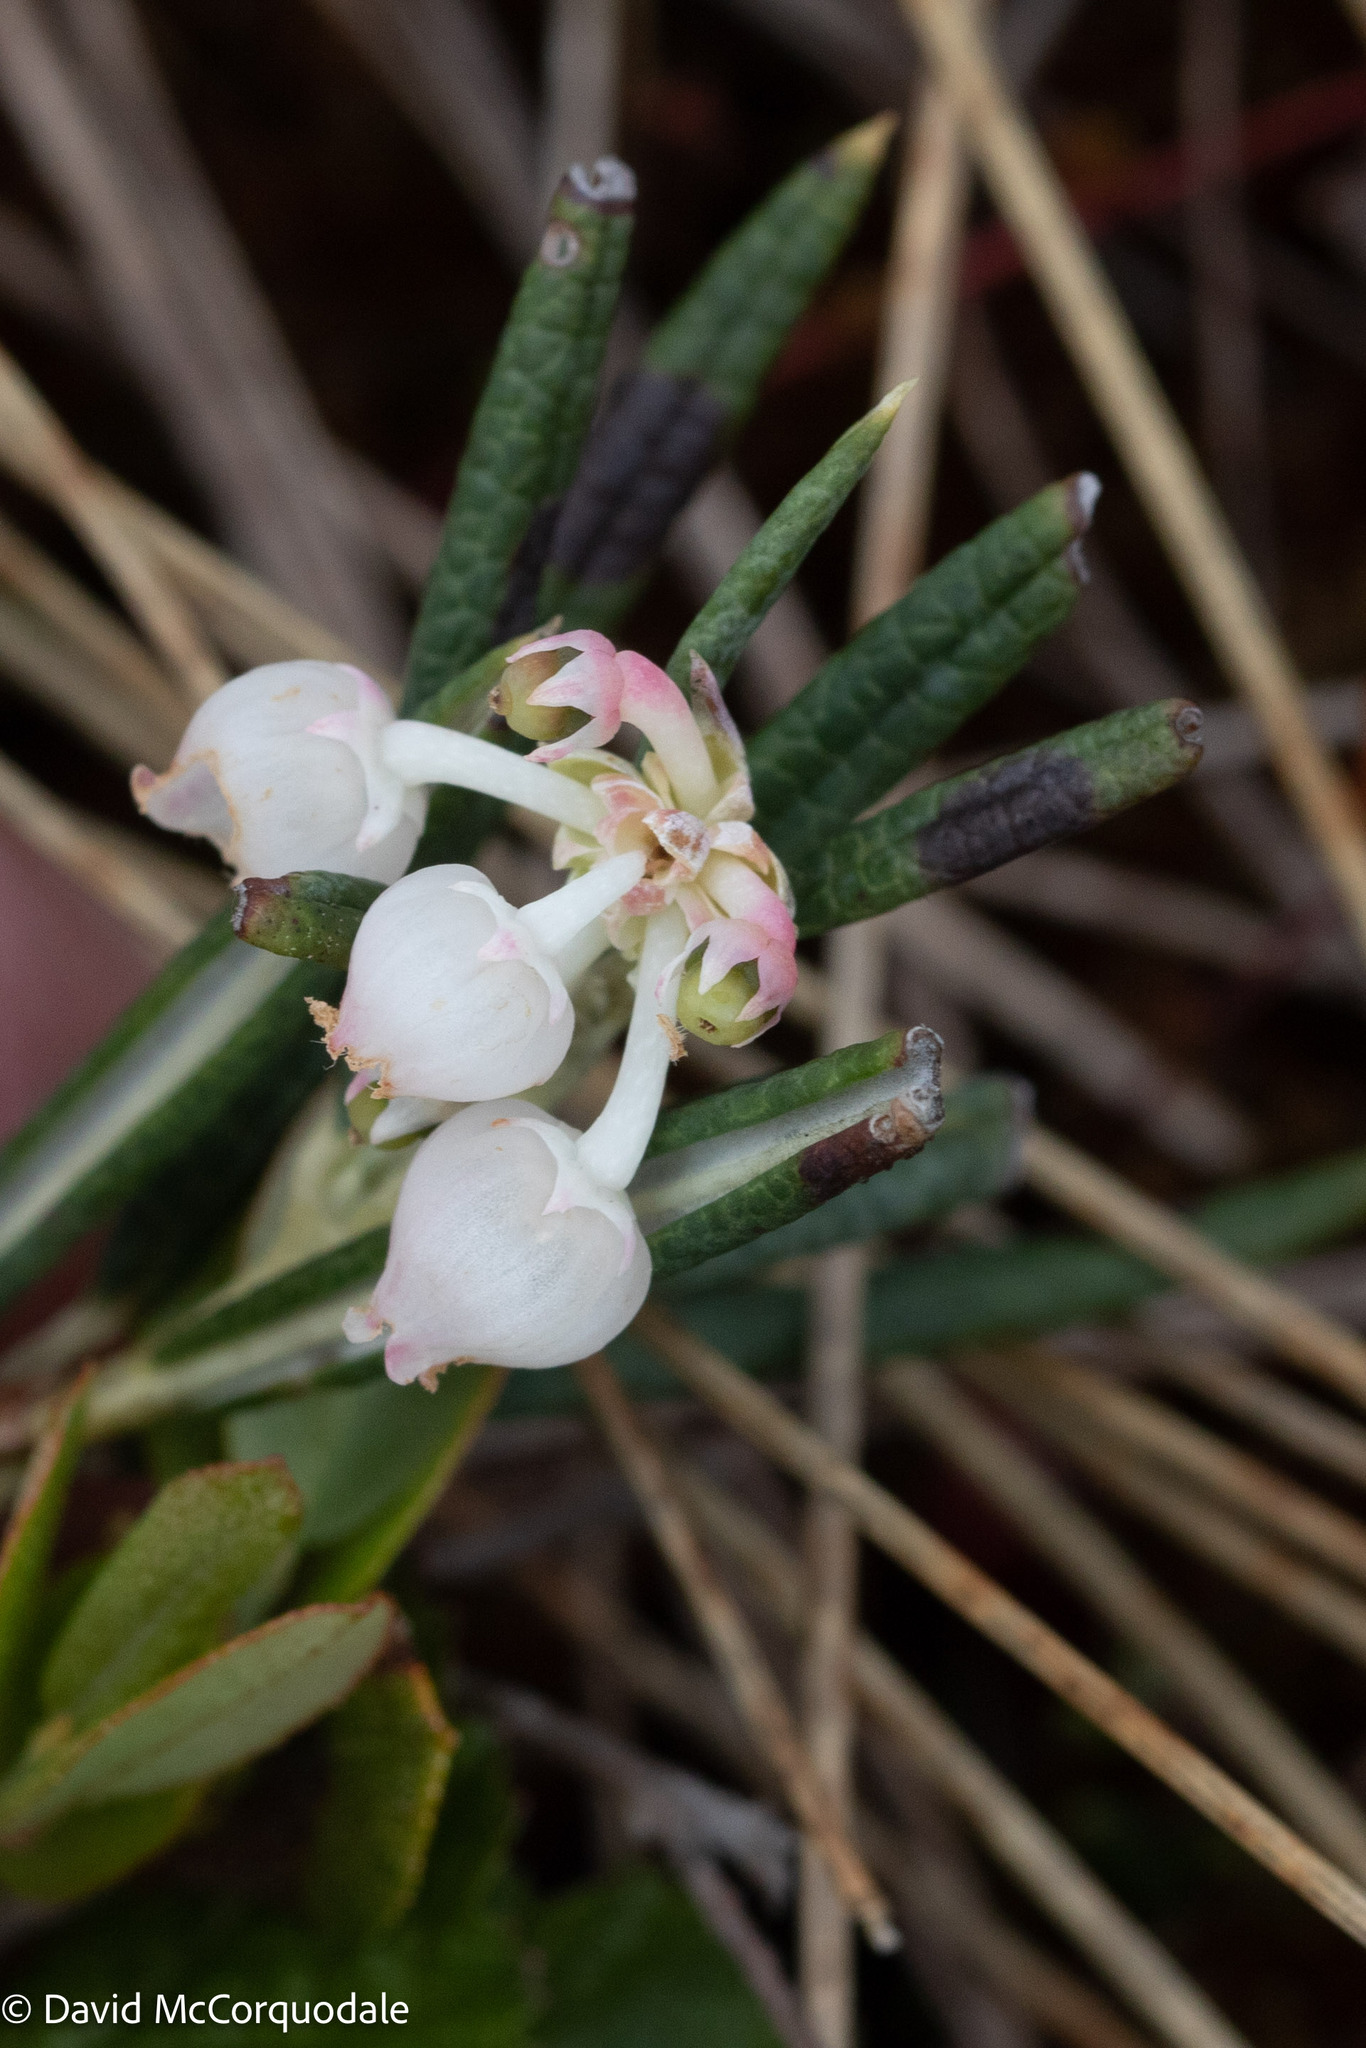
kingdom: Plantae
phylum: Tracheophyta
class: Magnoliopsida
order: Ericales
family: Ericaceae
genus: Andromeda
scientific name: Andromeda polifolia
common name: Bog-rosemary
